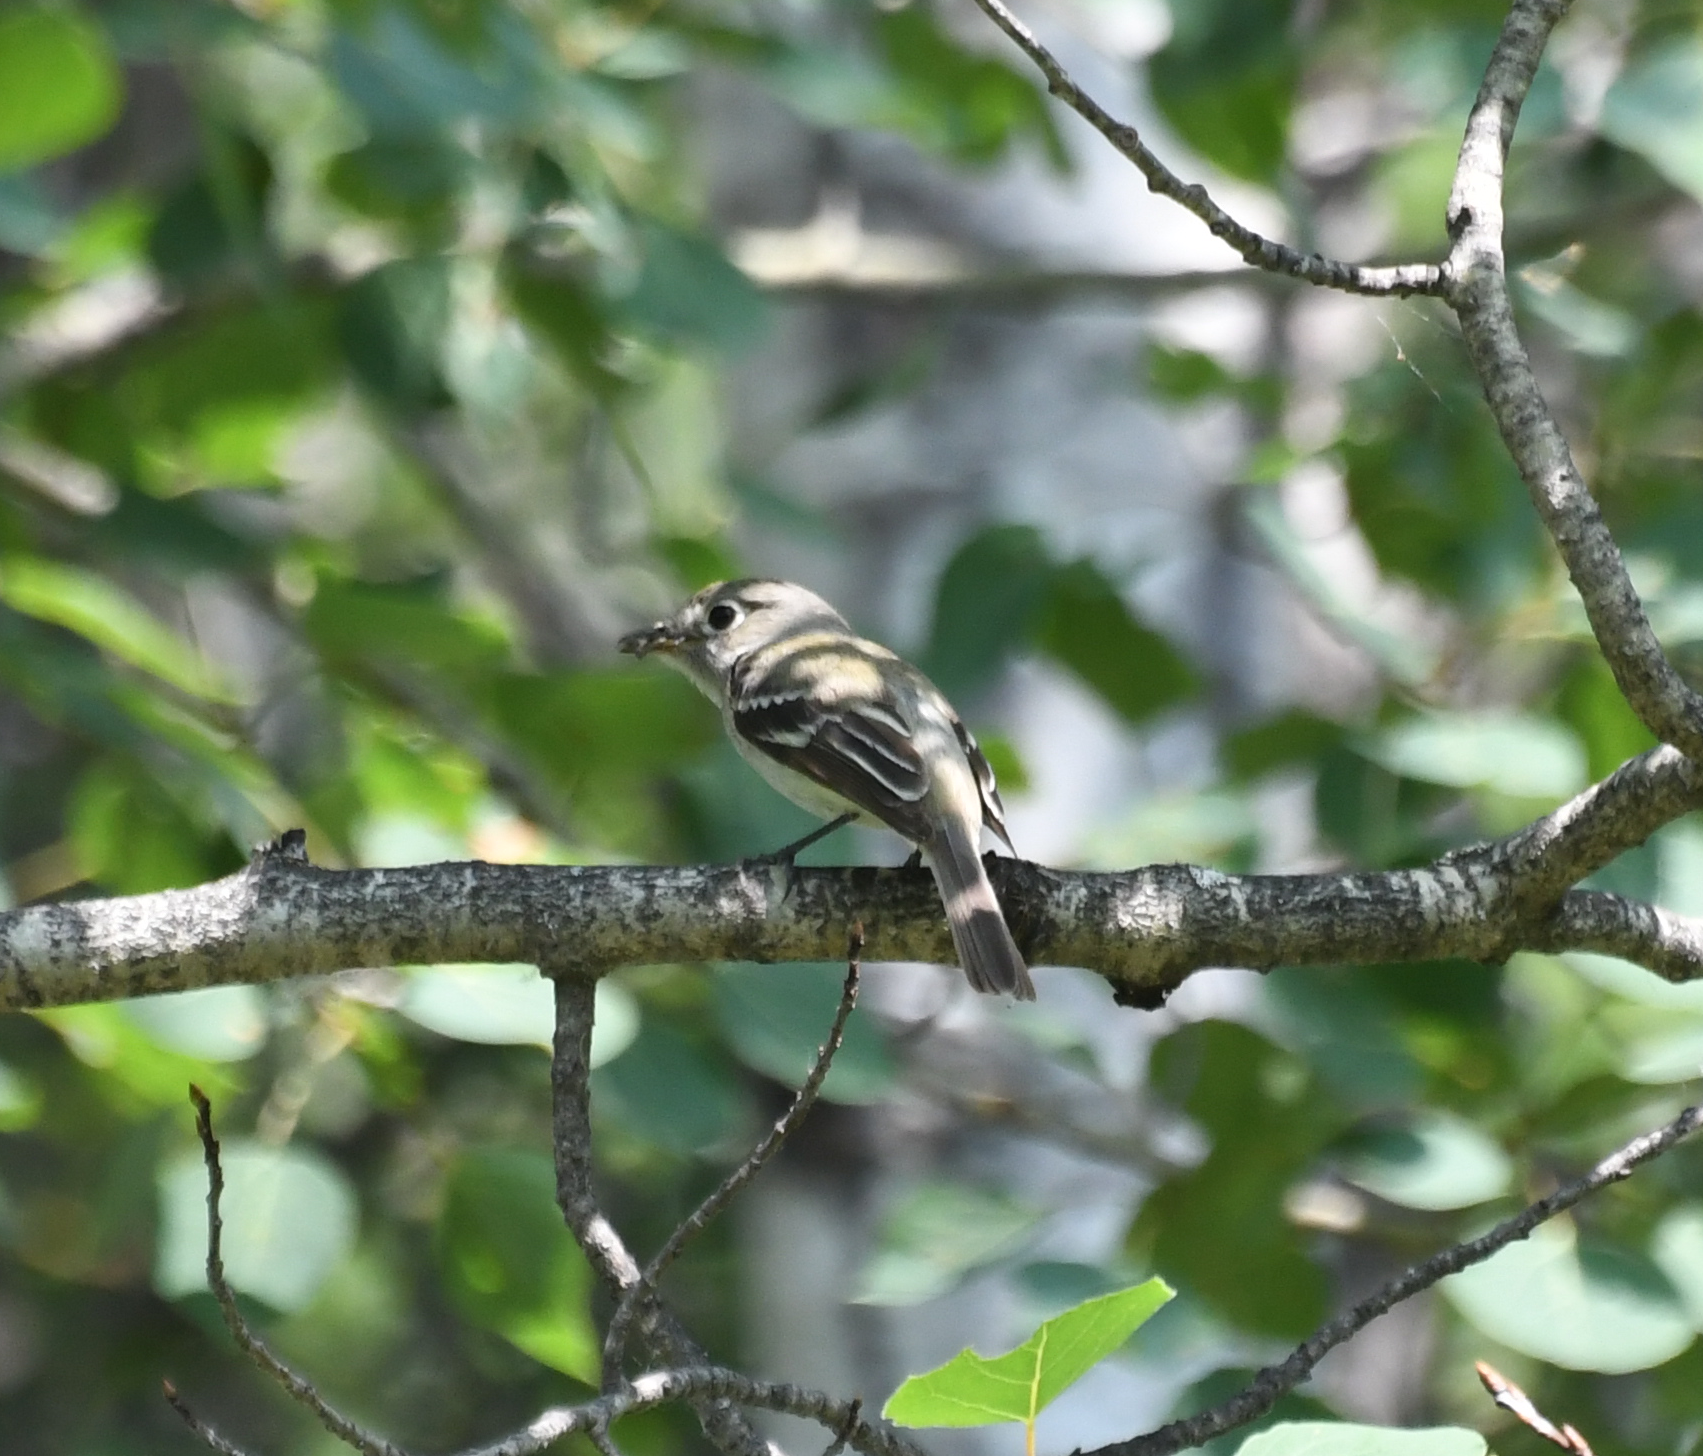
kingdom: Animalia
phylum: Chordata
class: Aves
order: Passeriformes
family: Tyrannidae
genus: Empidonax
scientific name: Empidonax minimus
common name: Least flycatcher
